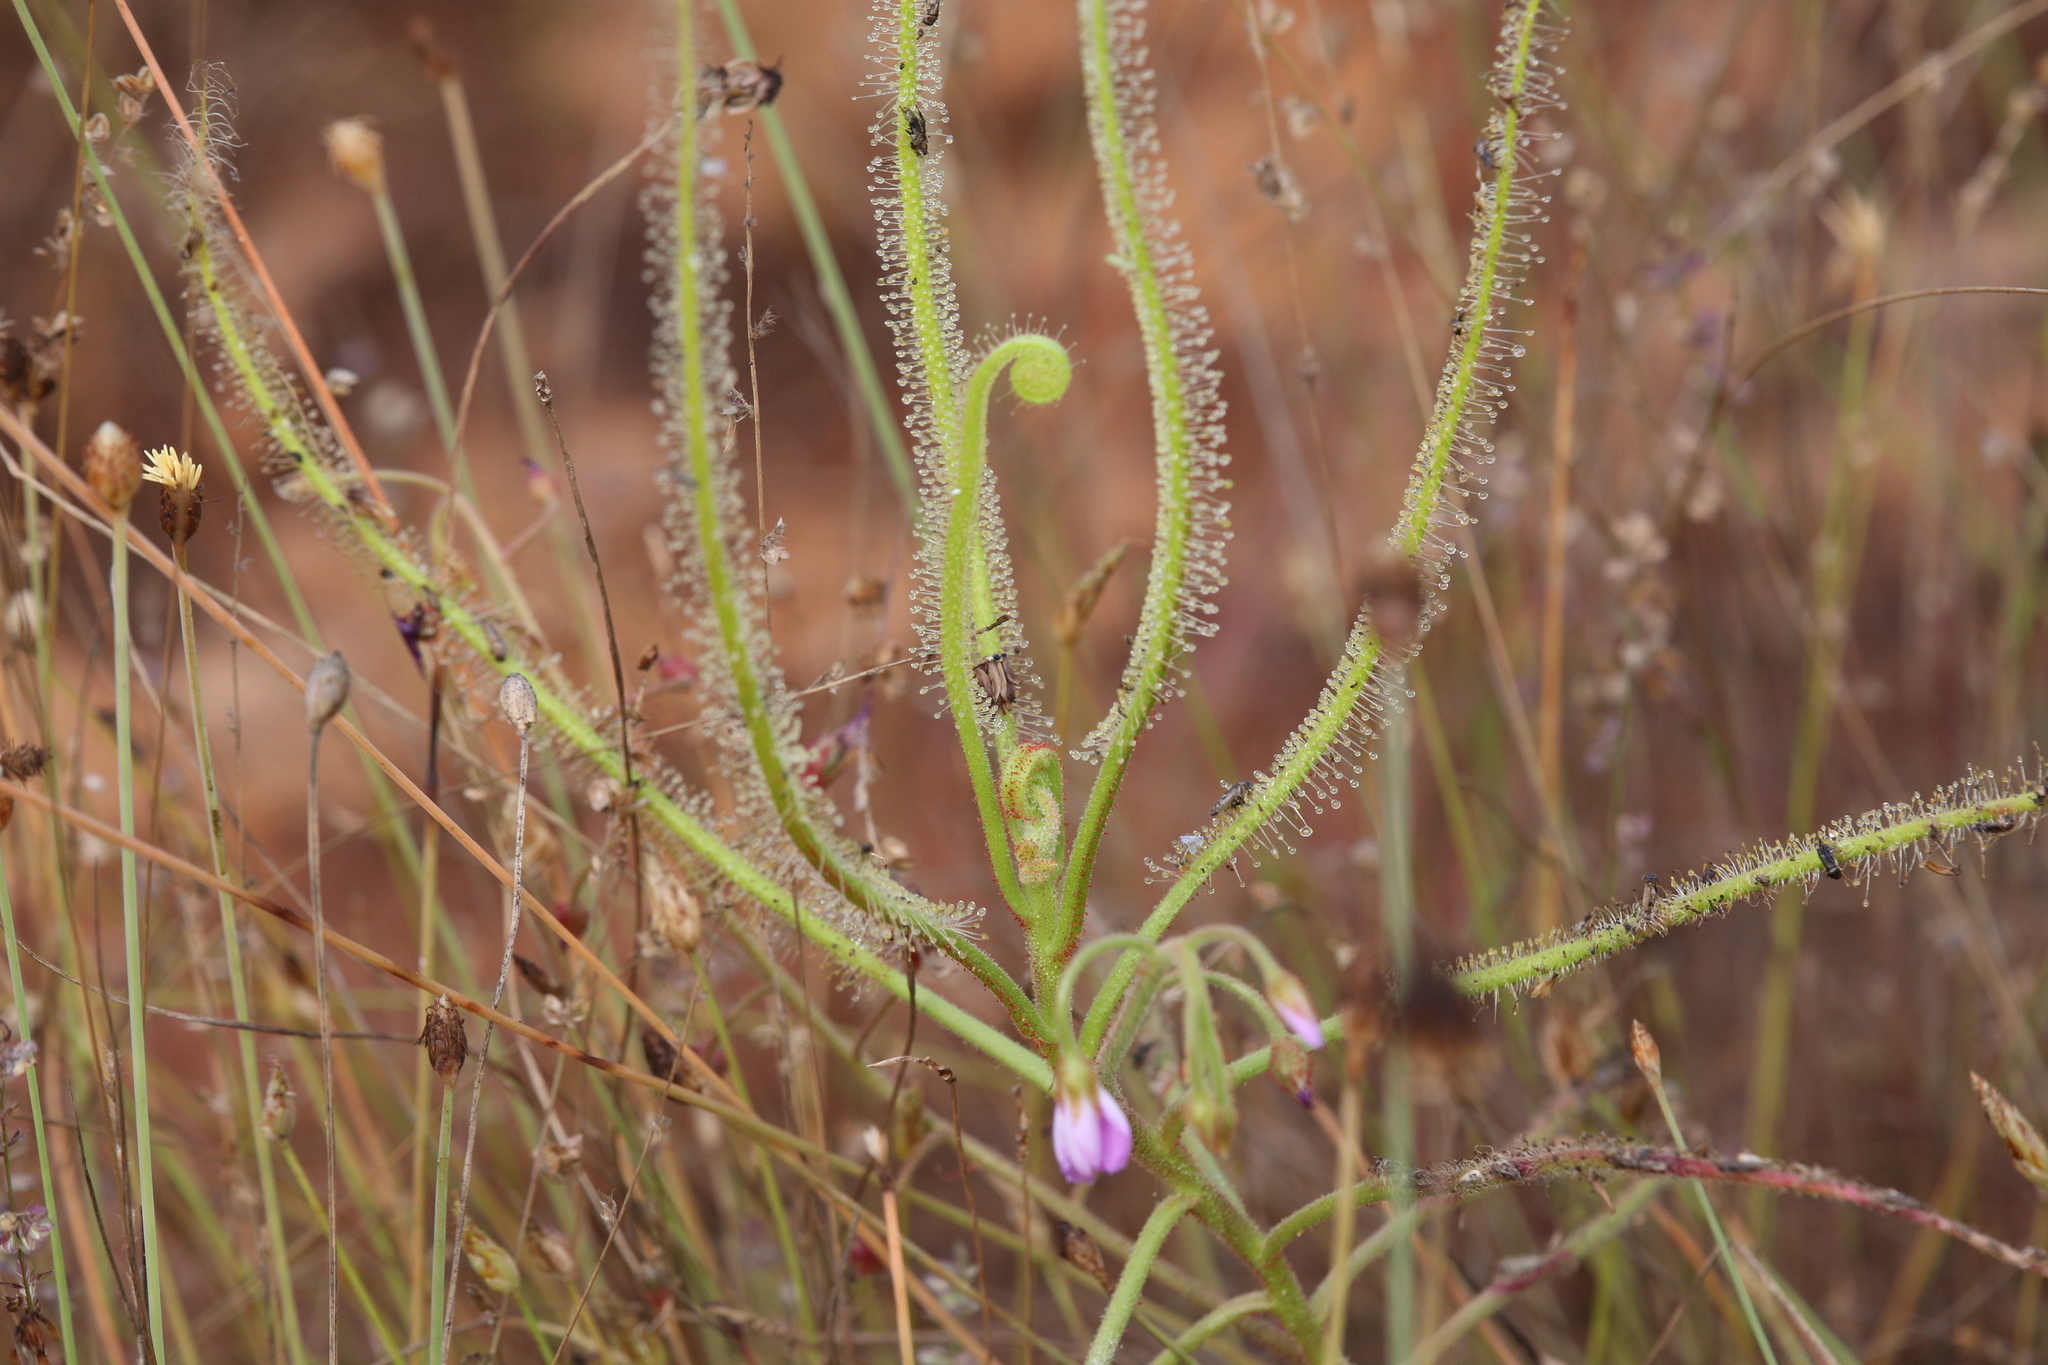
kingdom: Plantae
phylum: Tracheophyta
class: Magnoliopsida
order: Caryophyllales
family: Droseraceae
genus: Drosera
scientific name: Drosera indica
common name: Indian sundew
